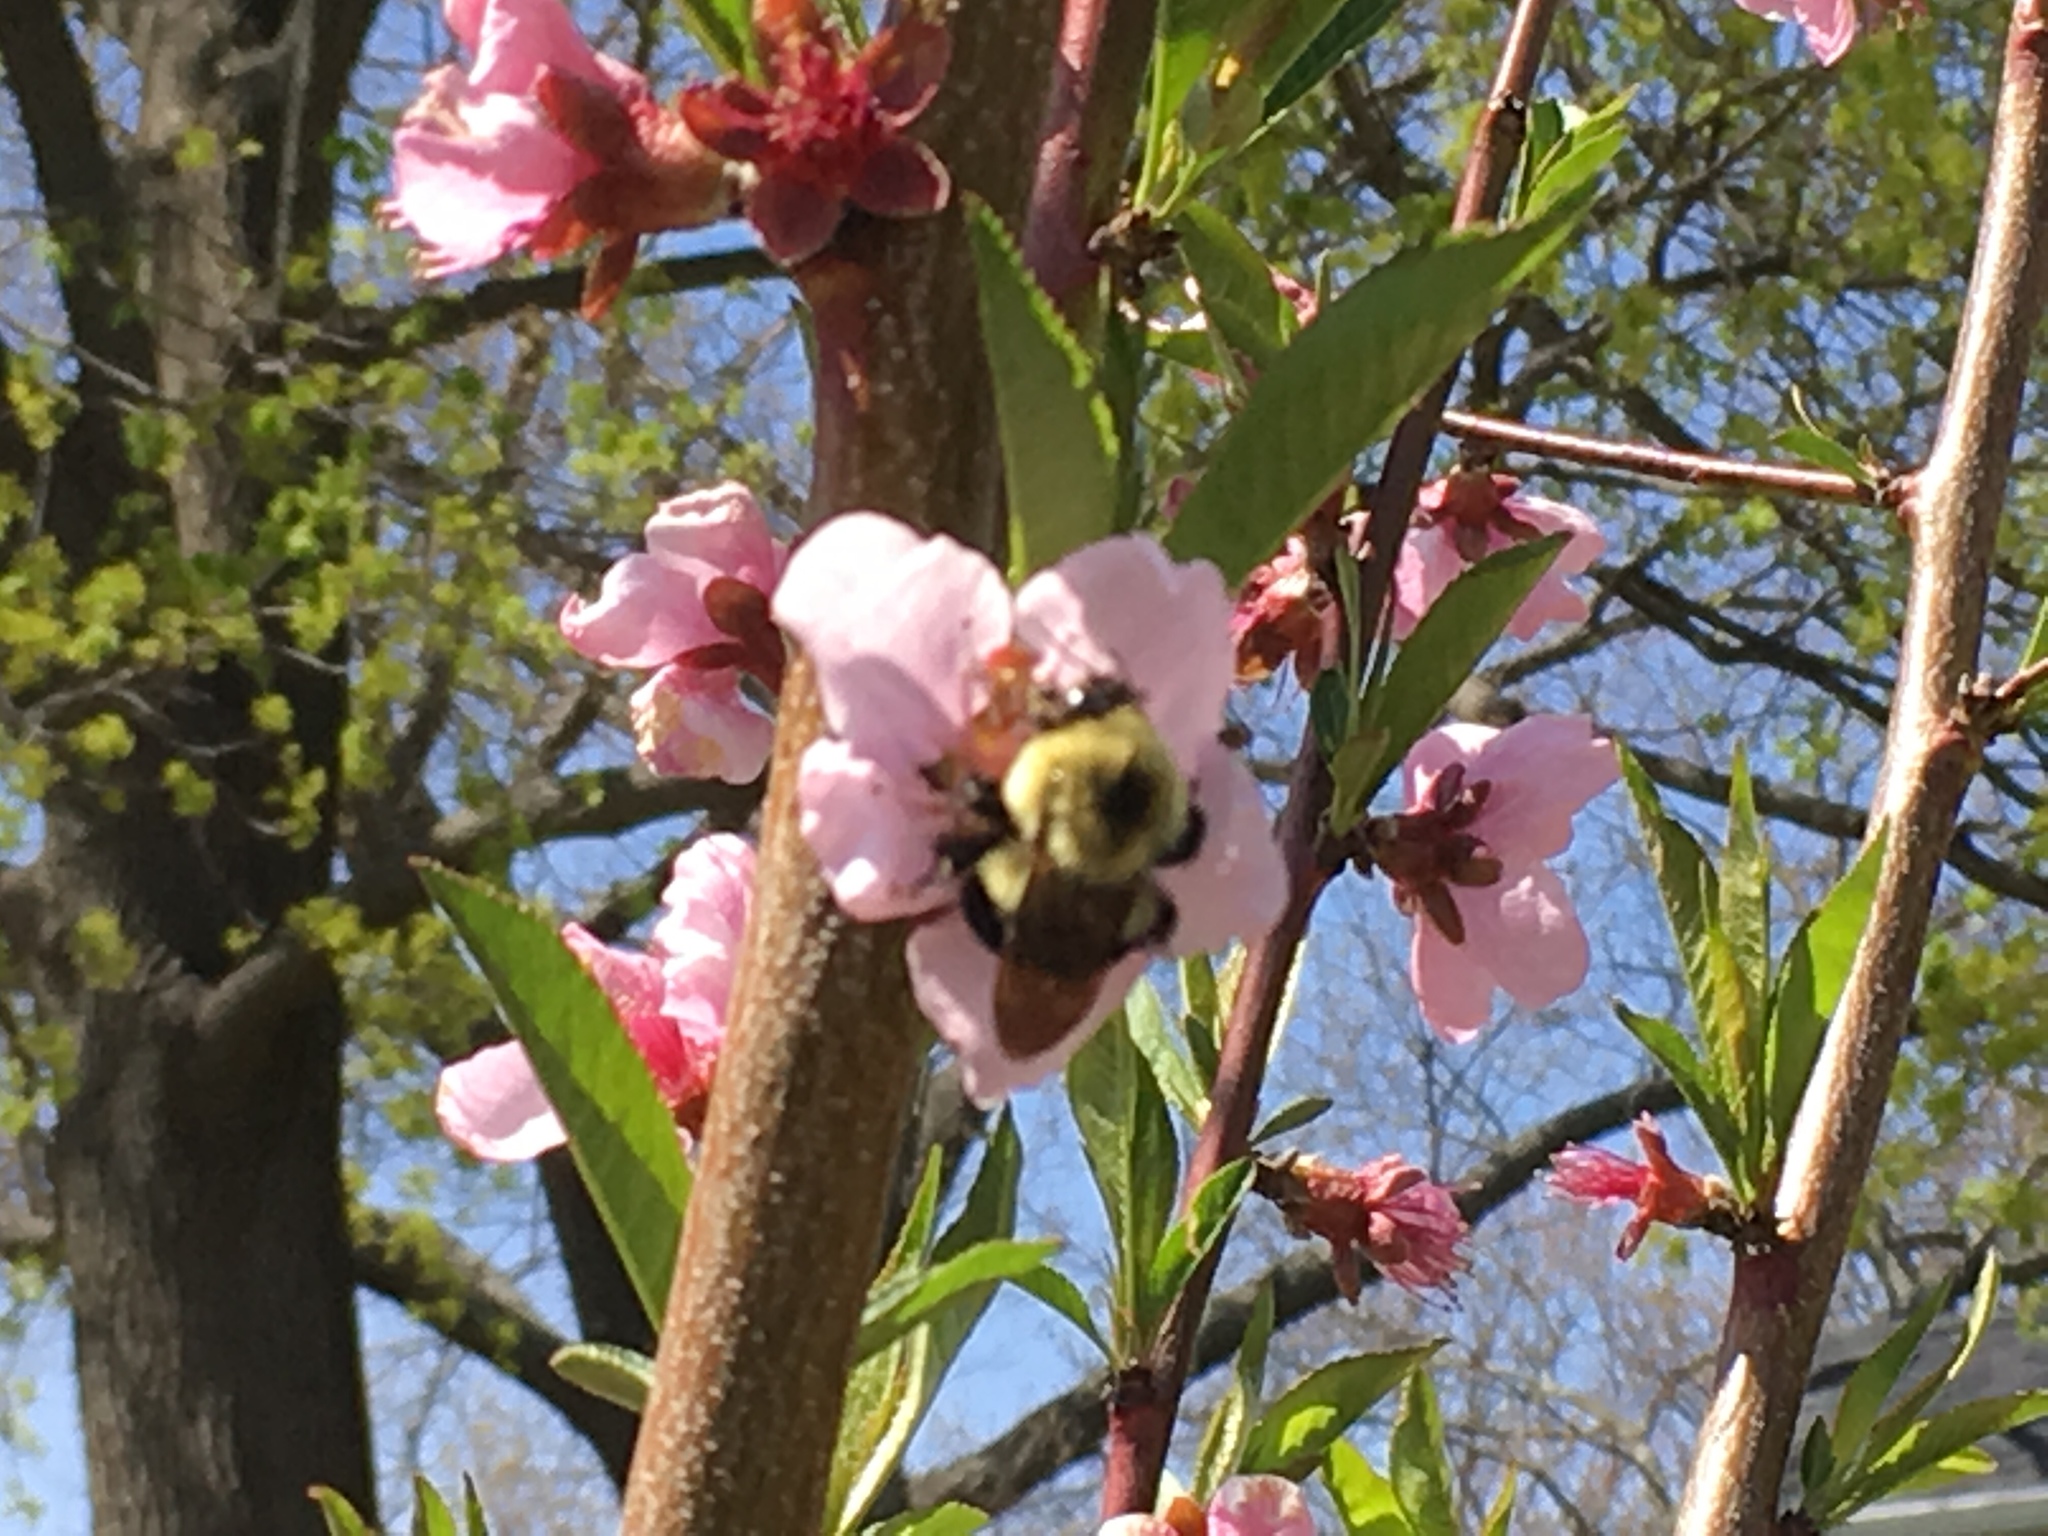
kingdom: Animalia
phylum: Arthropoda
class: Insecta
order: Hymenoptera
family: Apidae
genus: Bombus
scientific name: Bombus bimaculatus
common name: Two-spotted bumble bee
